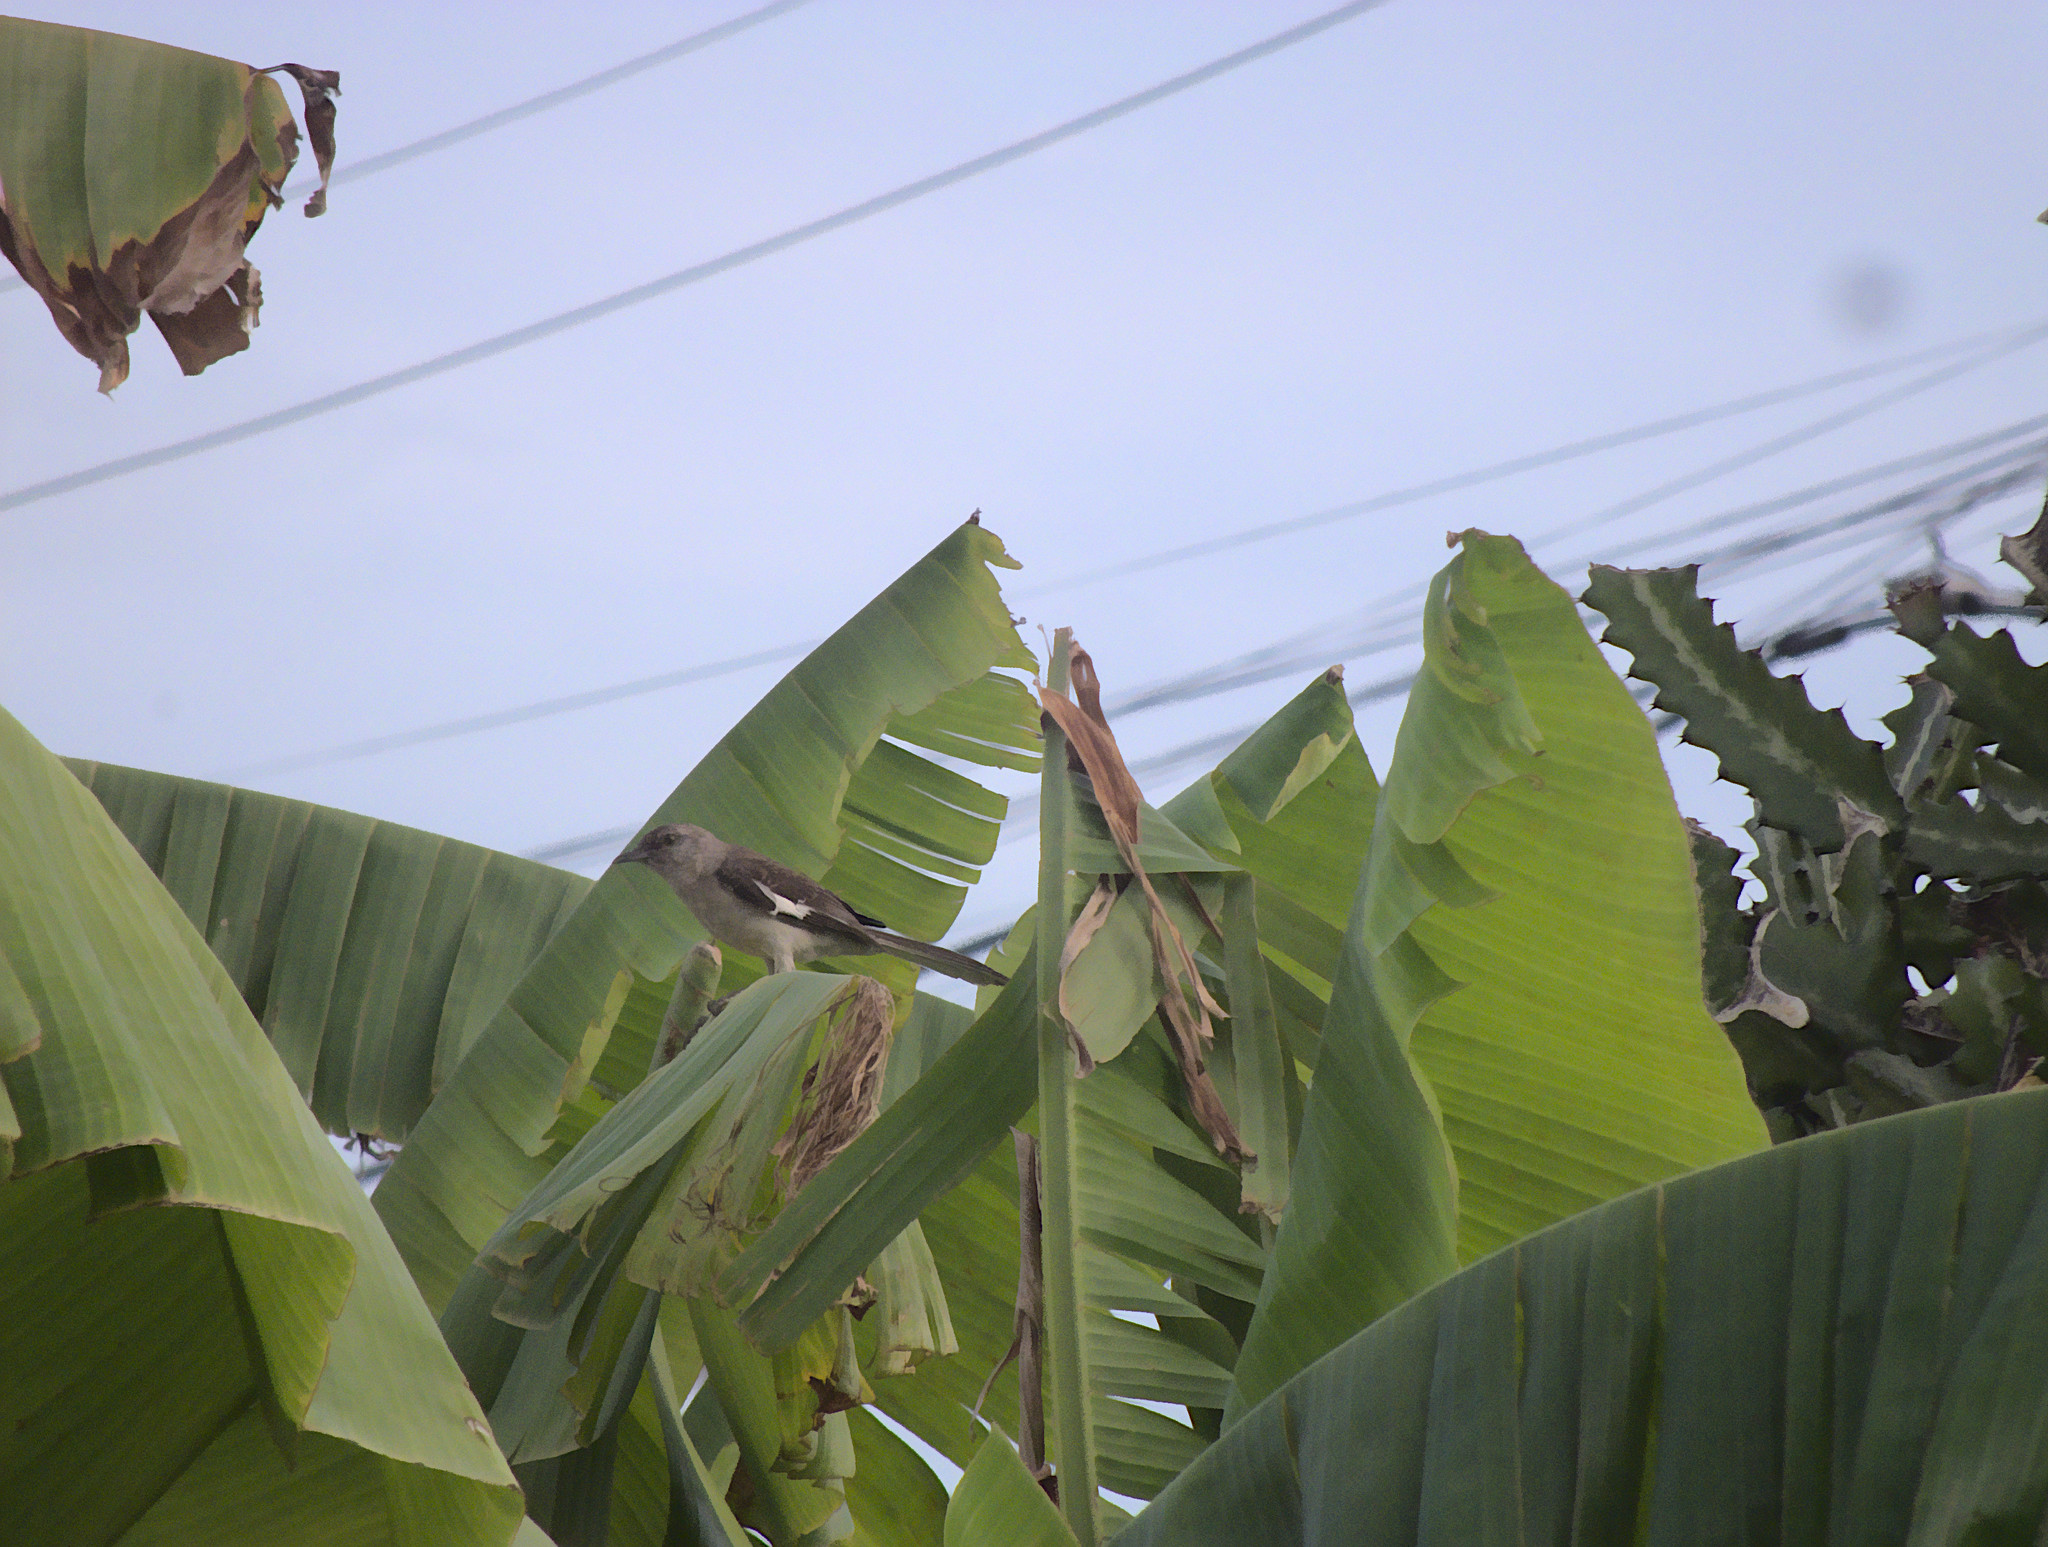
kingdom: Animalia
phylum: Chordata
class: Aves
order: Passeriformes
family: Mimidae
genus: Mimus
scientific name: Mimus polyglottos
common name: Northern mockingbird
